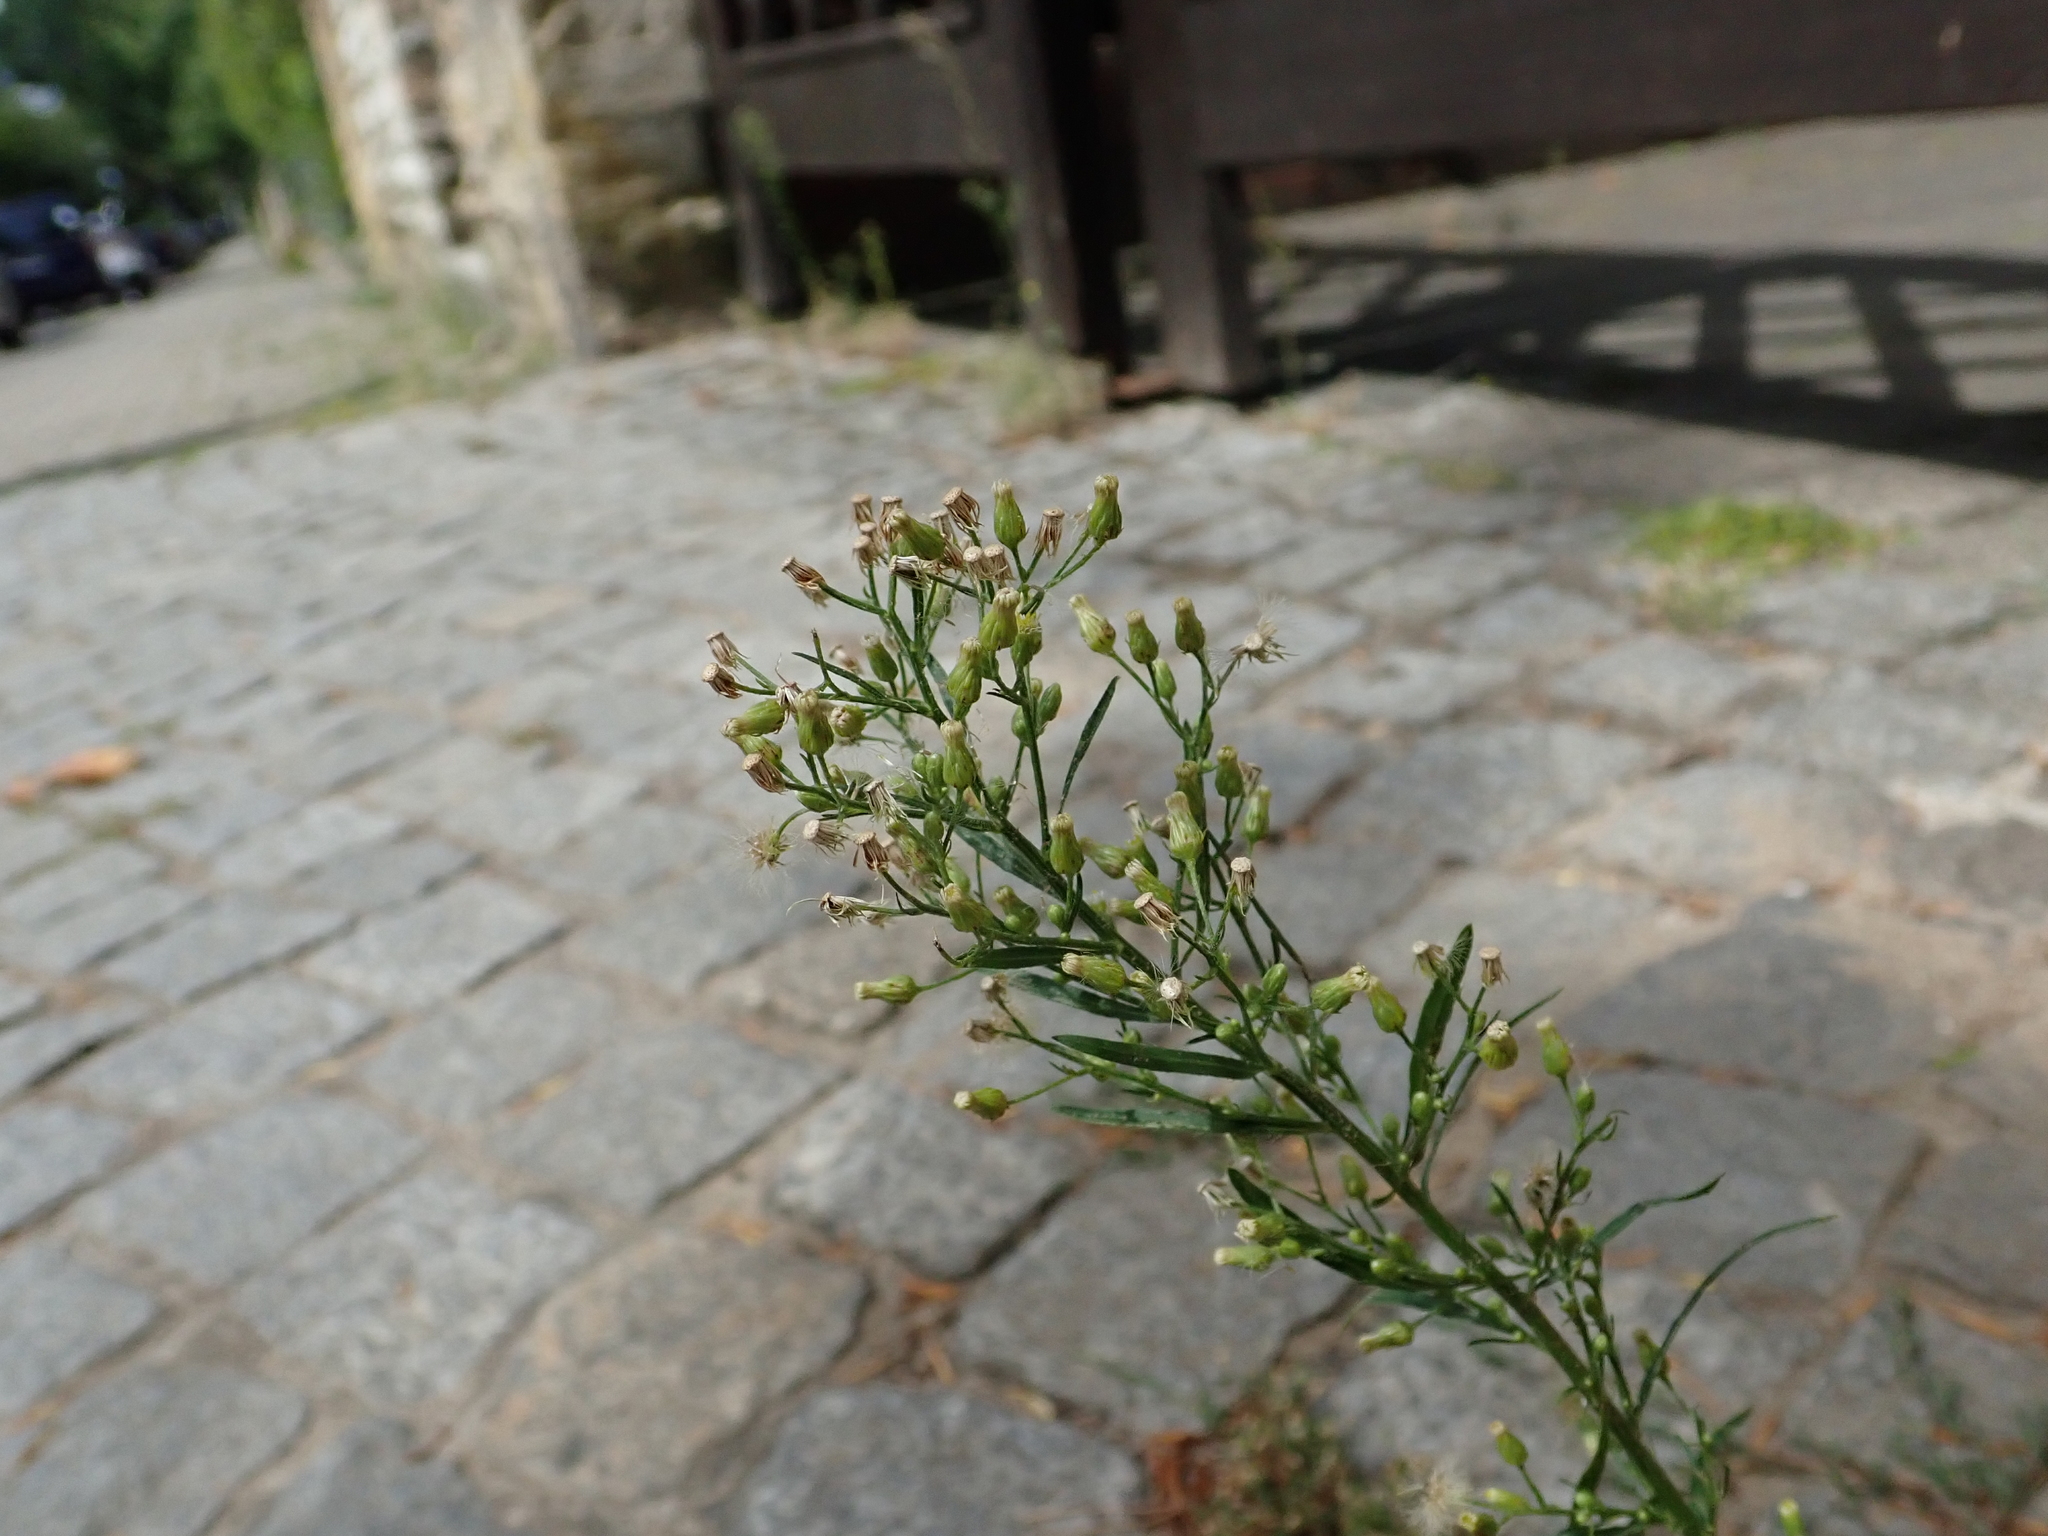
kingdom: Plantae
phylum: Tracheophyta
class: Magnoliopsida
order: Asterales
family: Asteraceae
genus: Erigeron
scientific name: Erigeron canadensis
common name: Canadian fleabane
